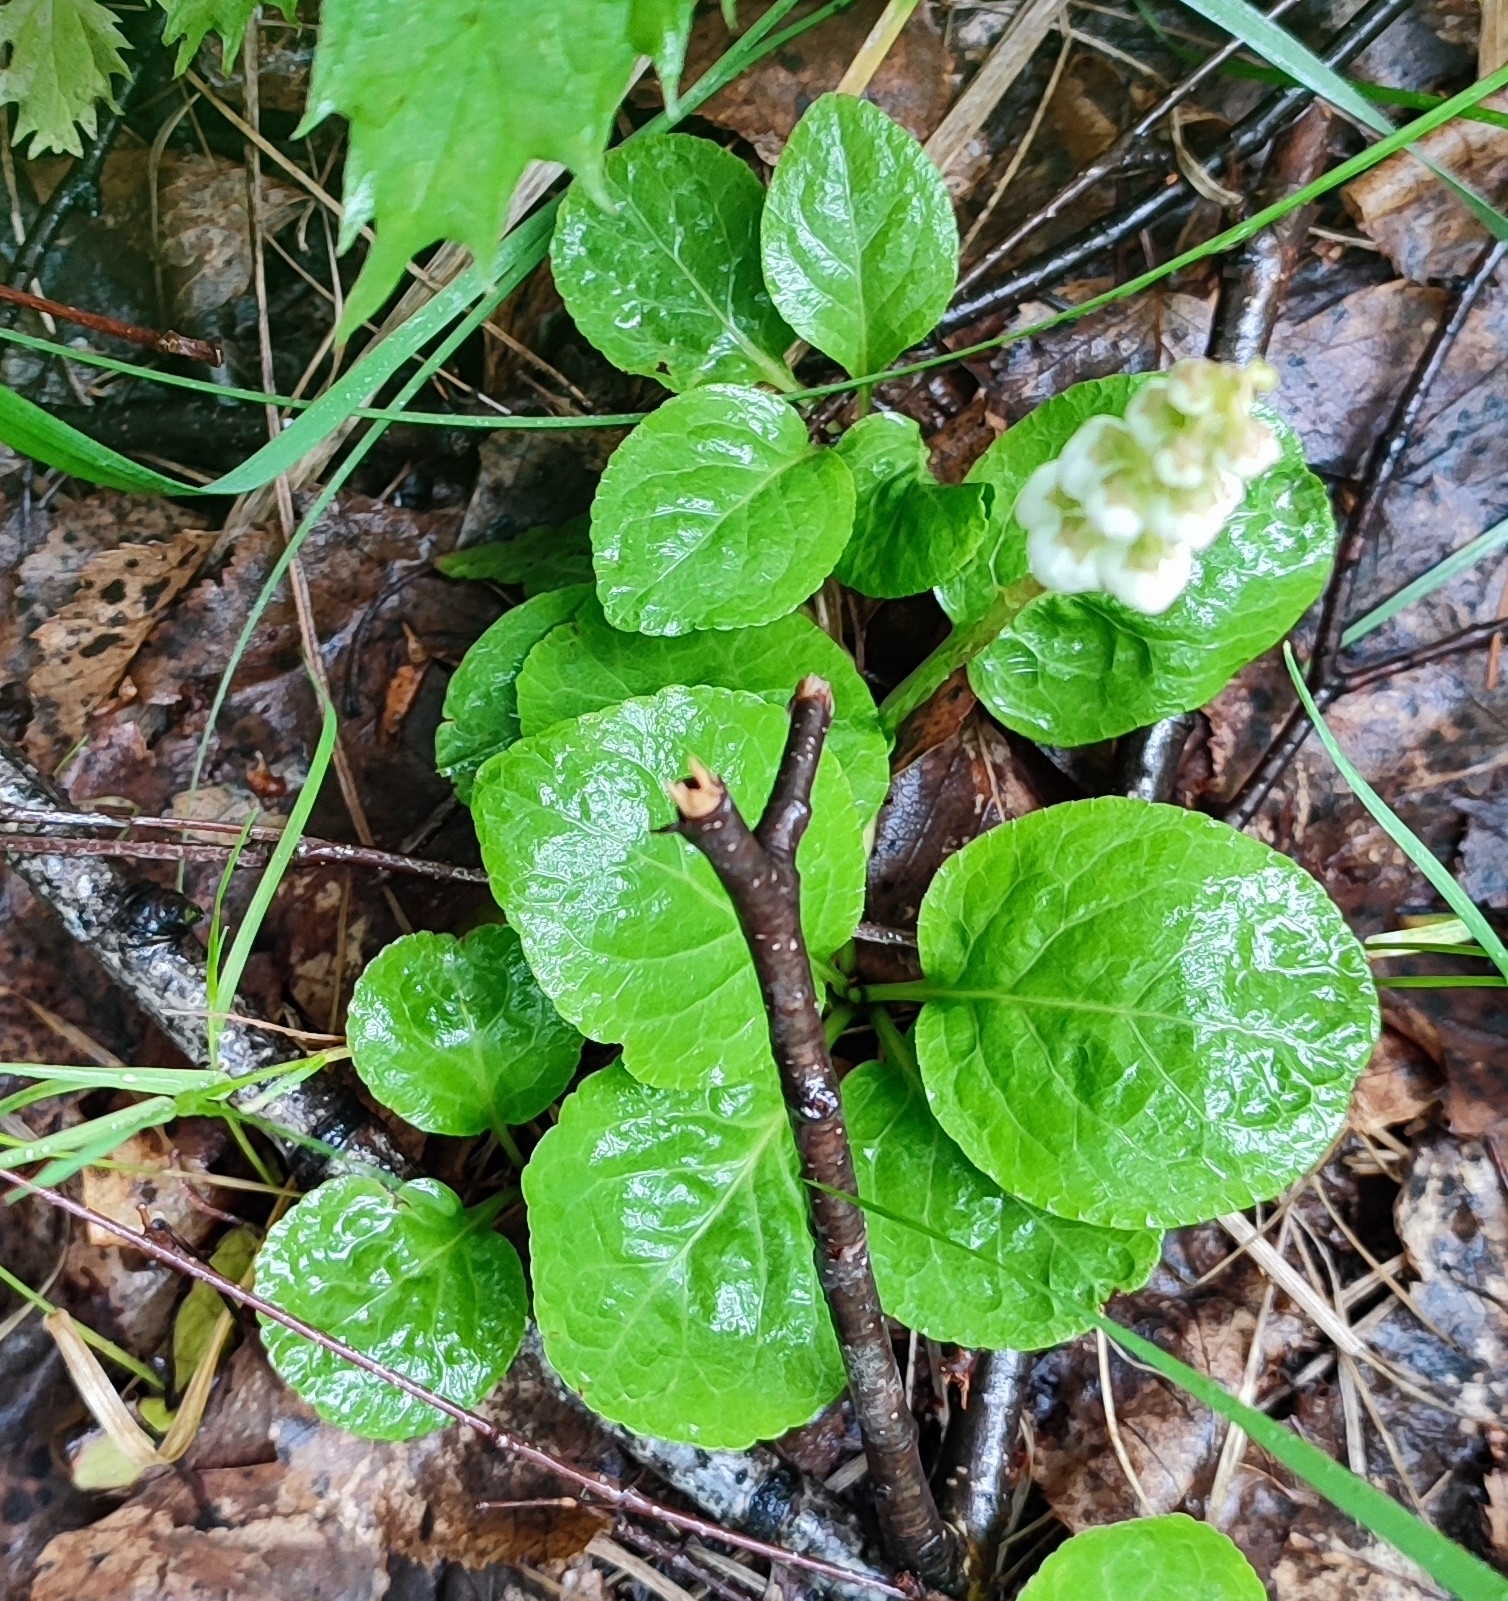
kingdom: Plantae
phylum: Tracheophyta
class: Magnoliopsida
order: Ericales
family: Ericaceae
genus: Pyrola
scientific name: Pyrola minor
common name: Common wintergreen
